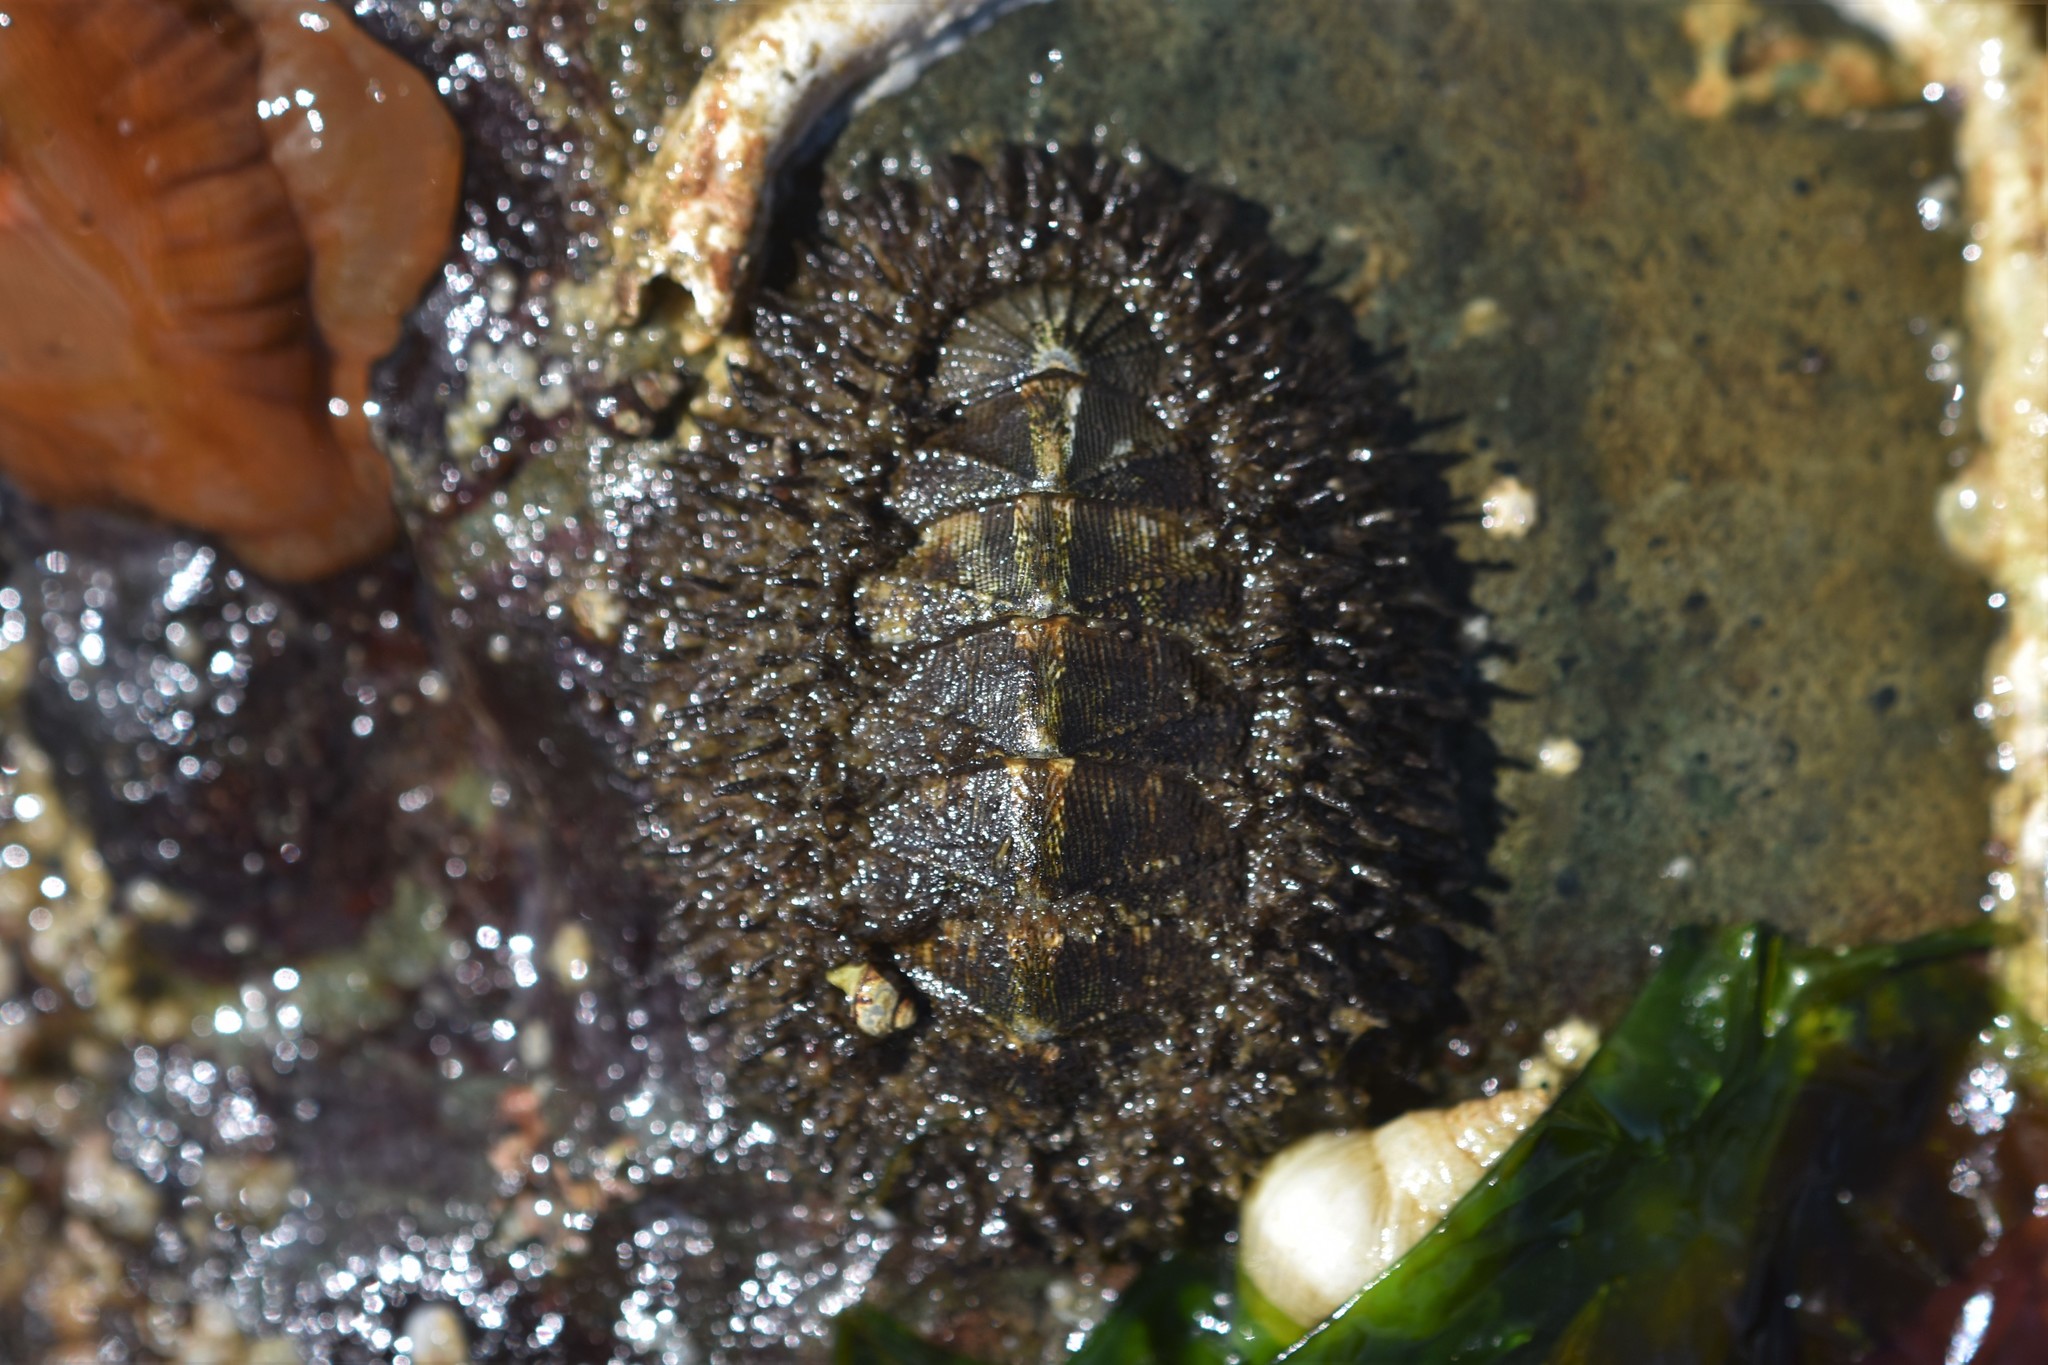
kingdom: Animalia
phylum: Mollusca
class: Polyplacophora
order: Chitonida
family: Mopaliidae
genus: Mopalia
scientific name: Mopalia muscosa
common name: Mossy chiton
